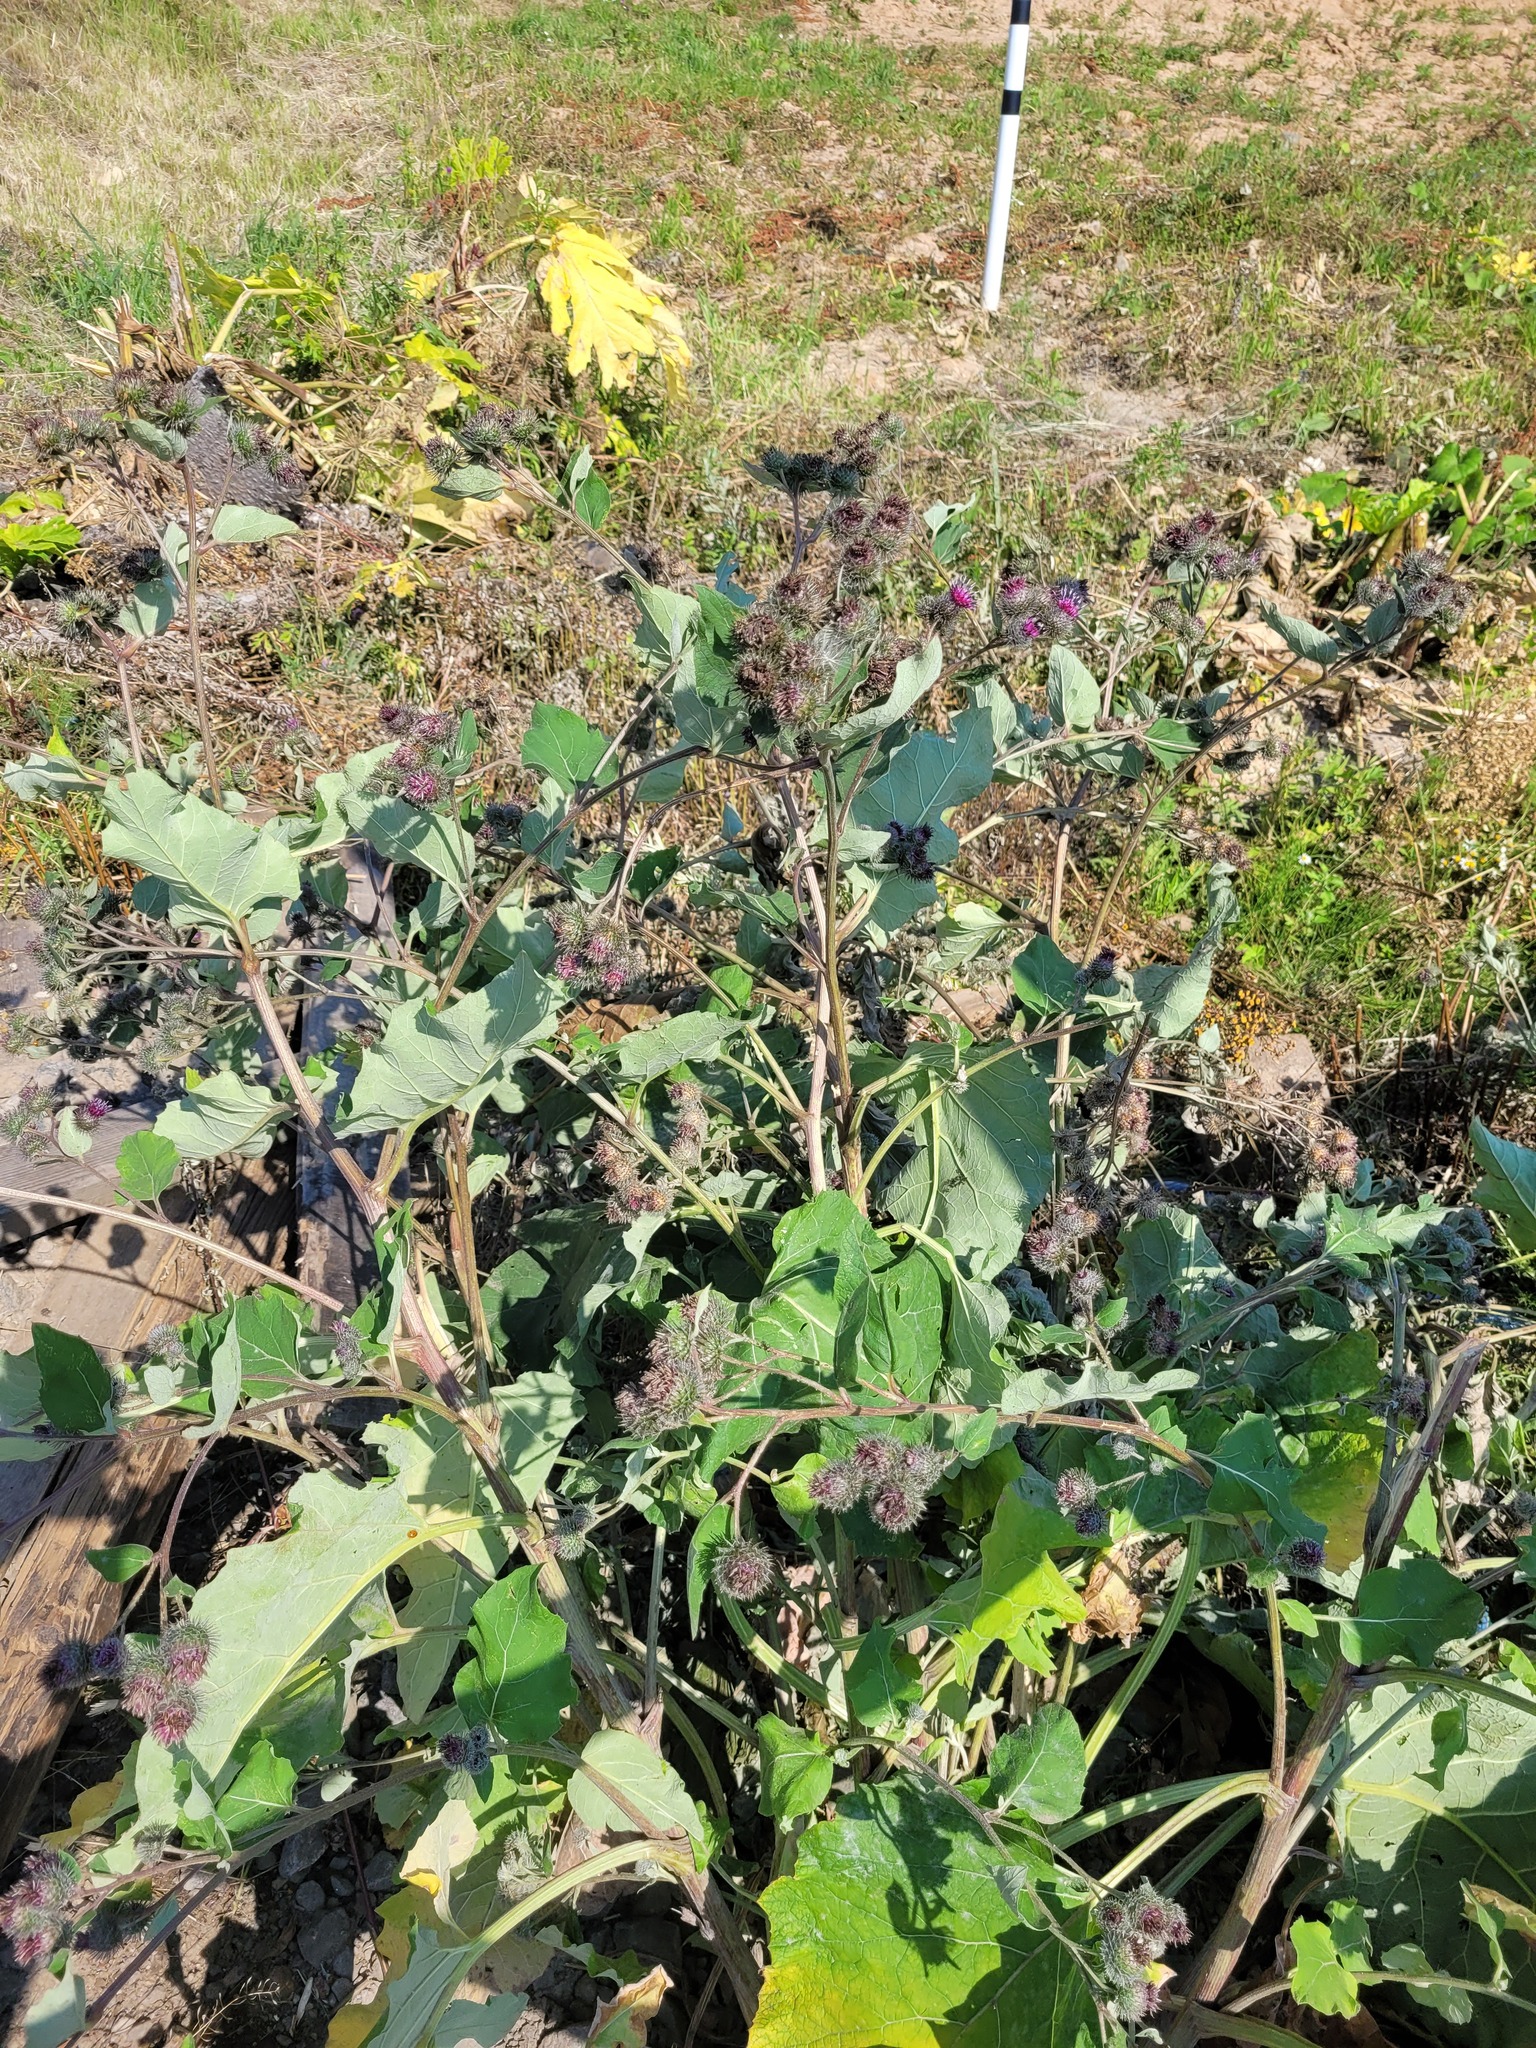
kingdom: Plantae
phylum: Tracheophyta
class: Magnoliopsida
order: Asterales
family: Asteraceae
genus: Arctium
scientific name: Arctium tomentosum
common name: Woolly burdock
